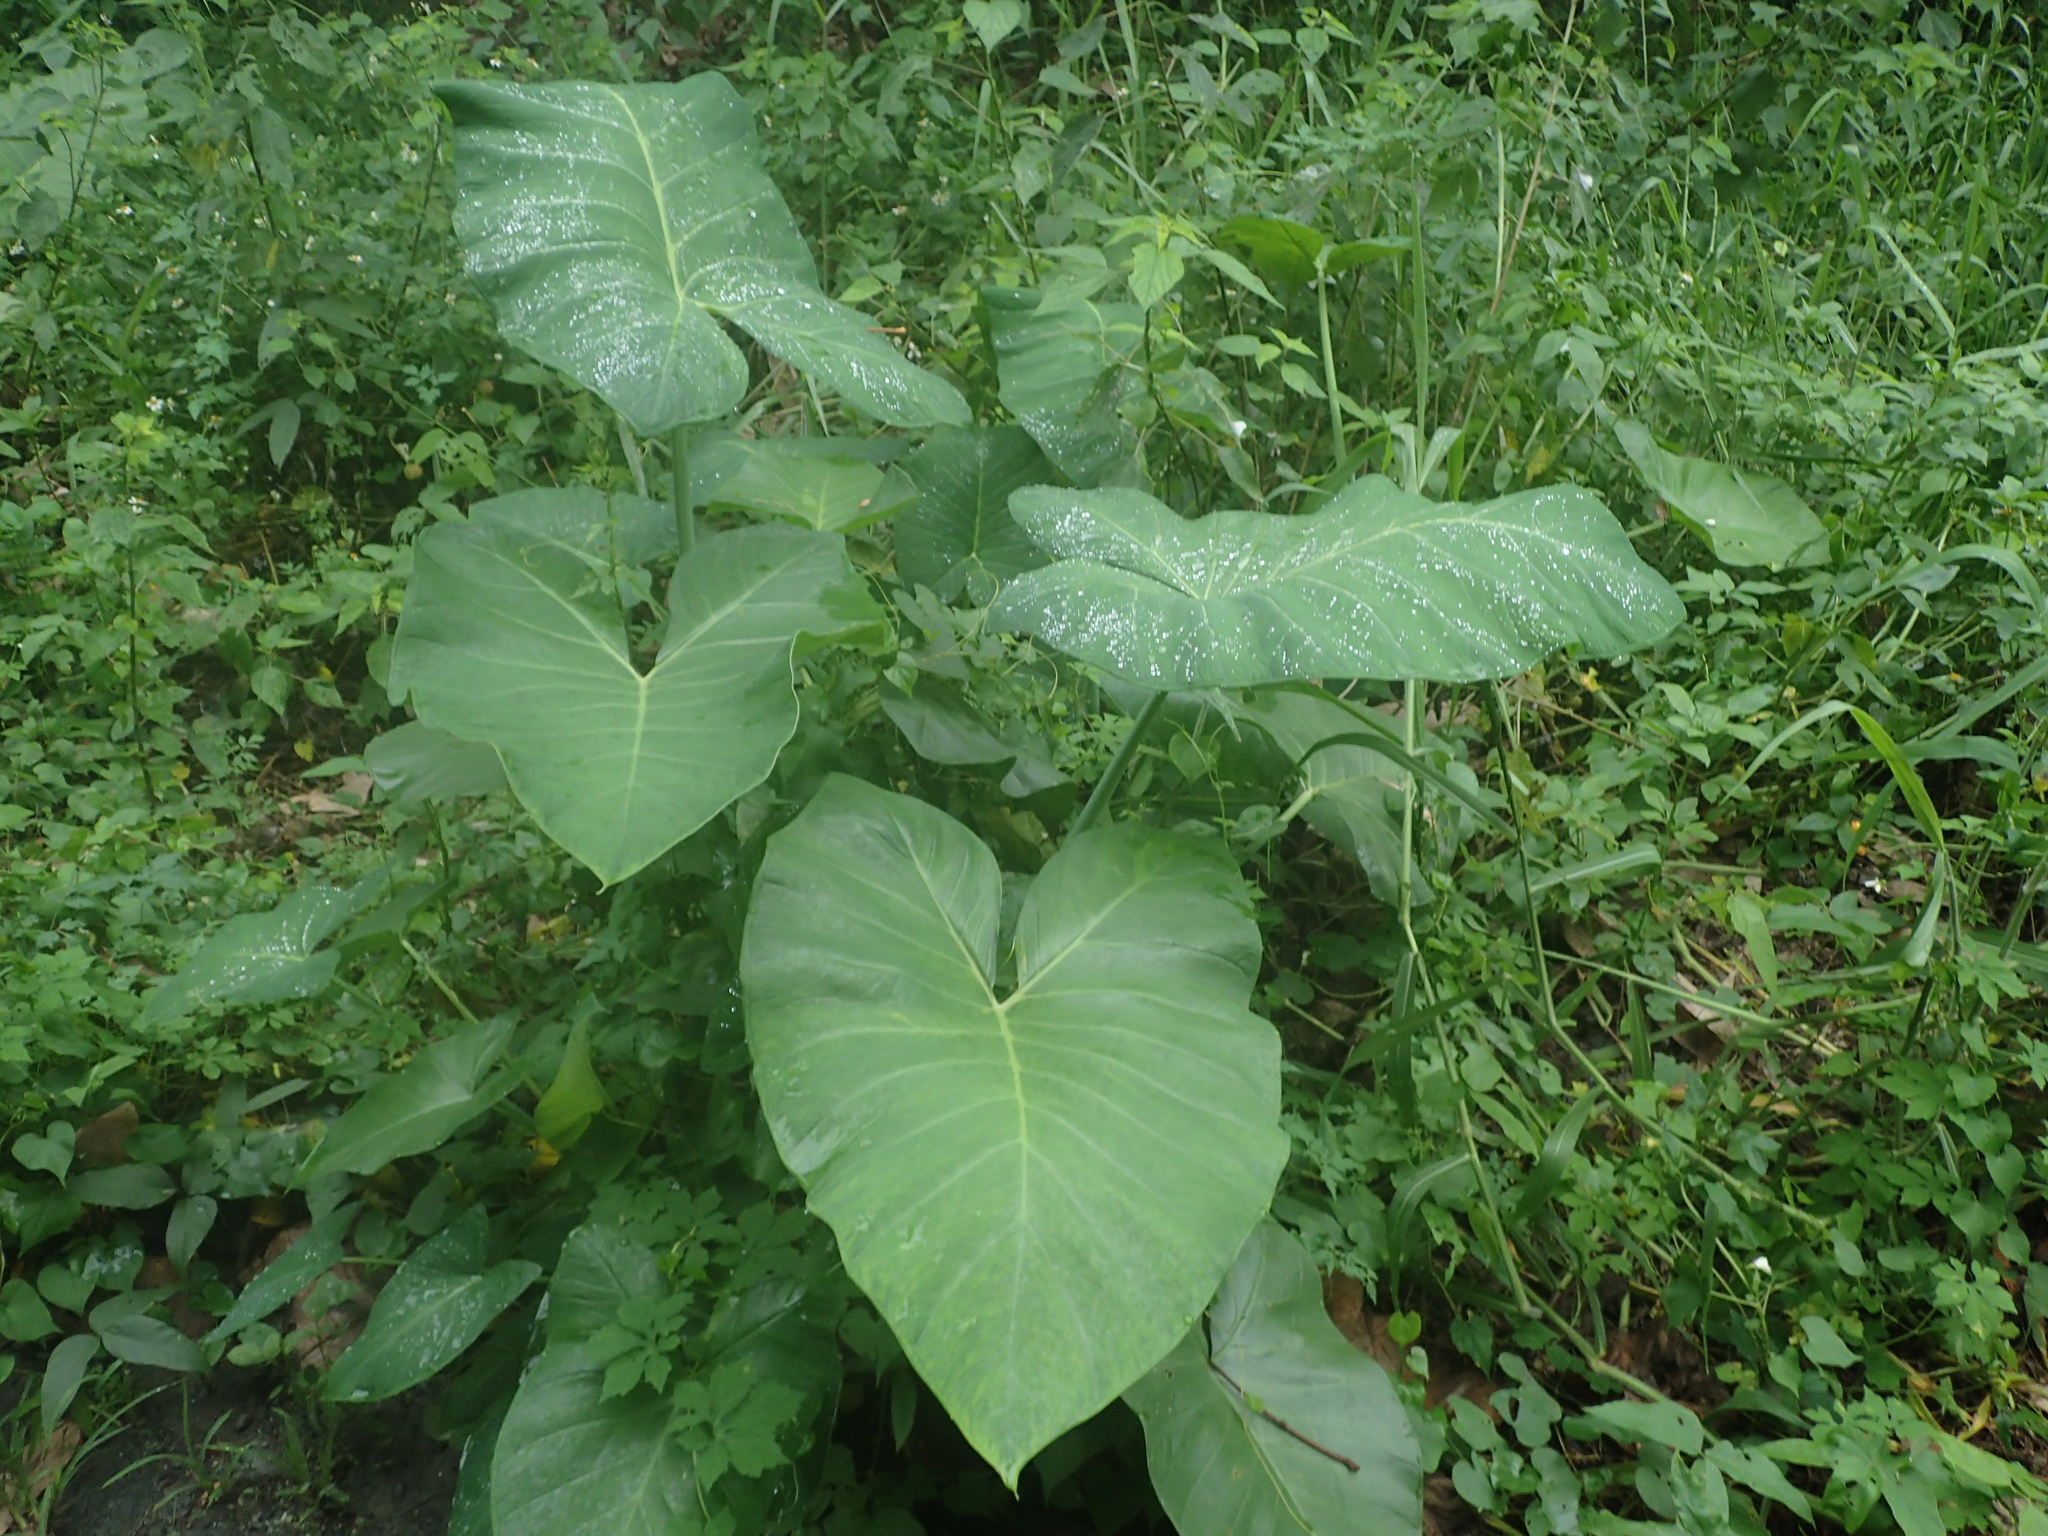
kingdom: Plantae
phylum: Tracheophyta
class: Liliopsida
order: Alismatales
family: Araceae
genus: Xanthosoma
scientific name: Xanthosoma sagittifolium
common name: Arrowleaf elephant's ear
